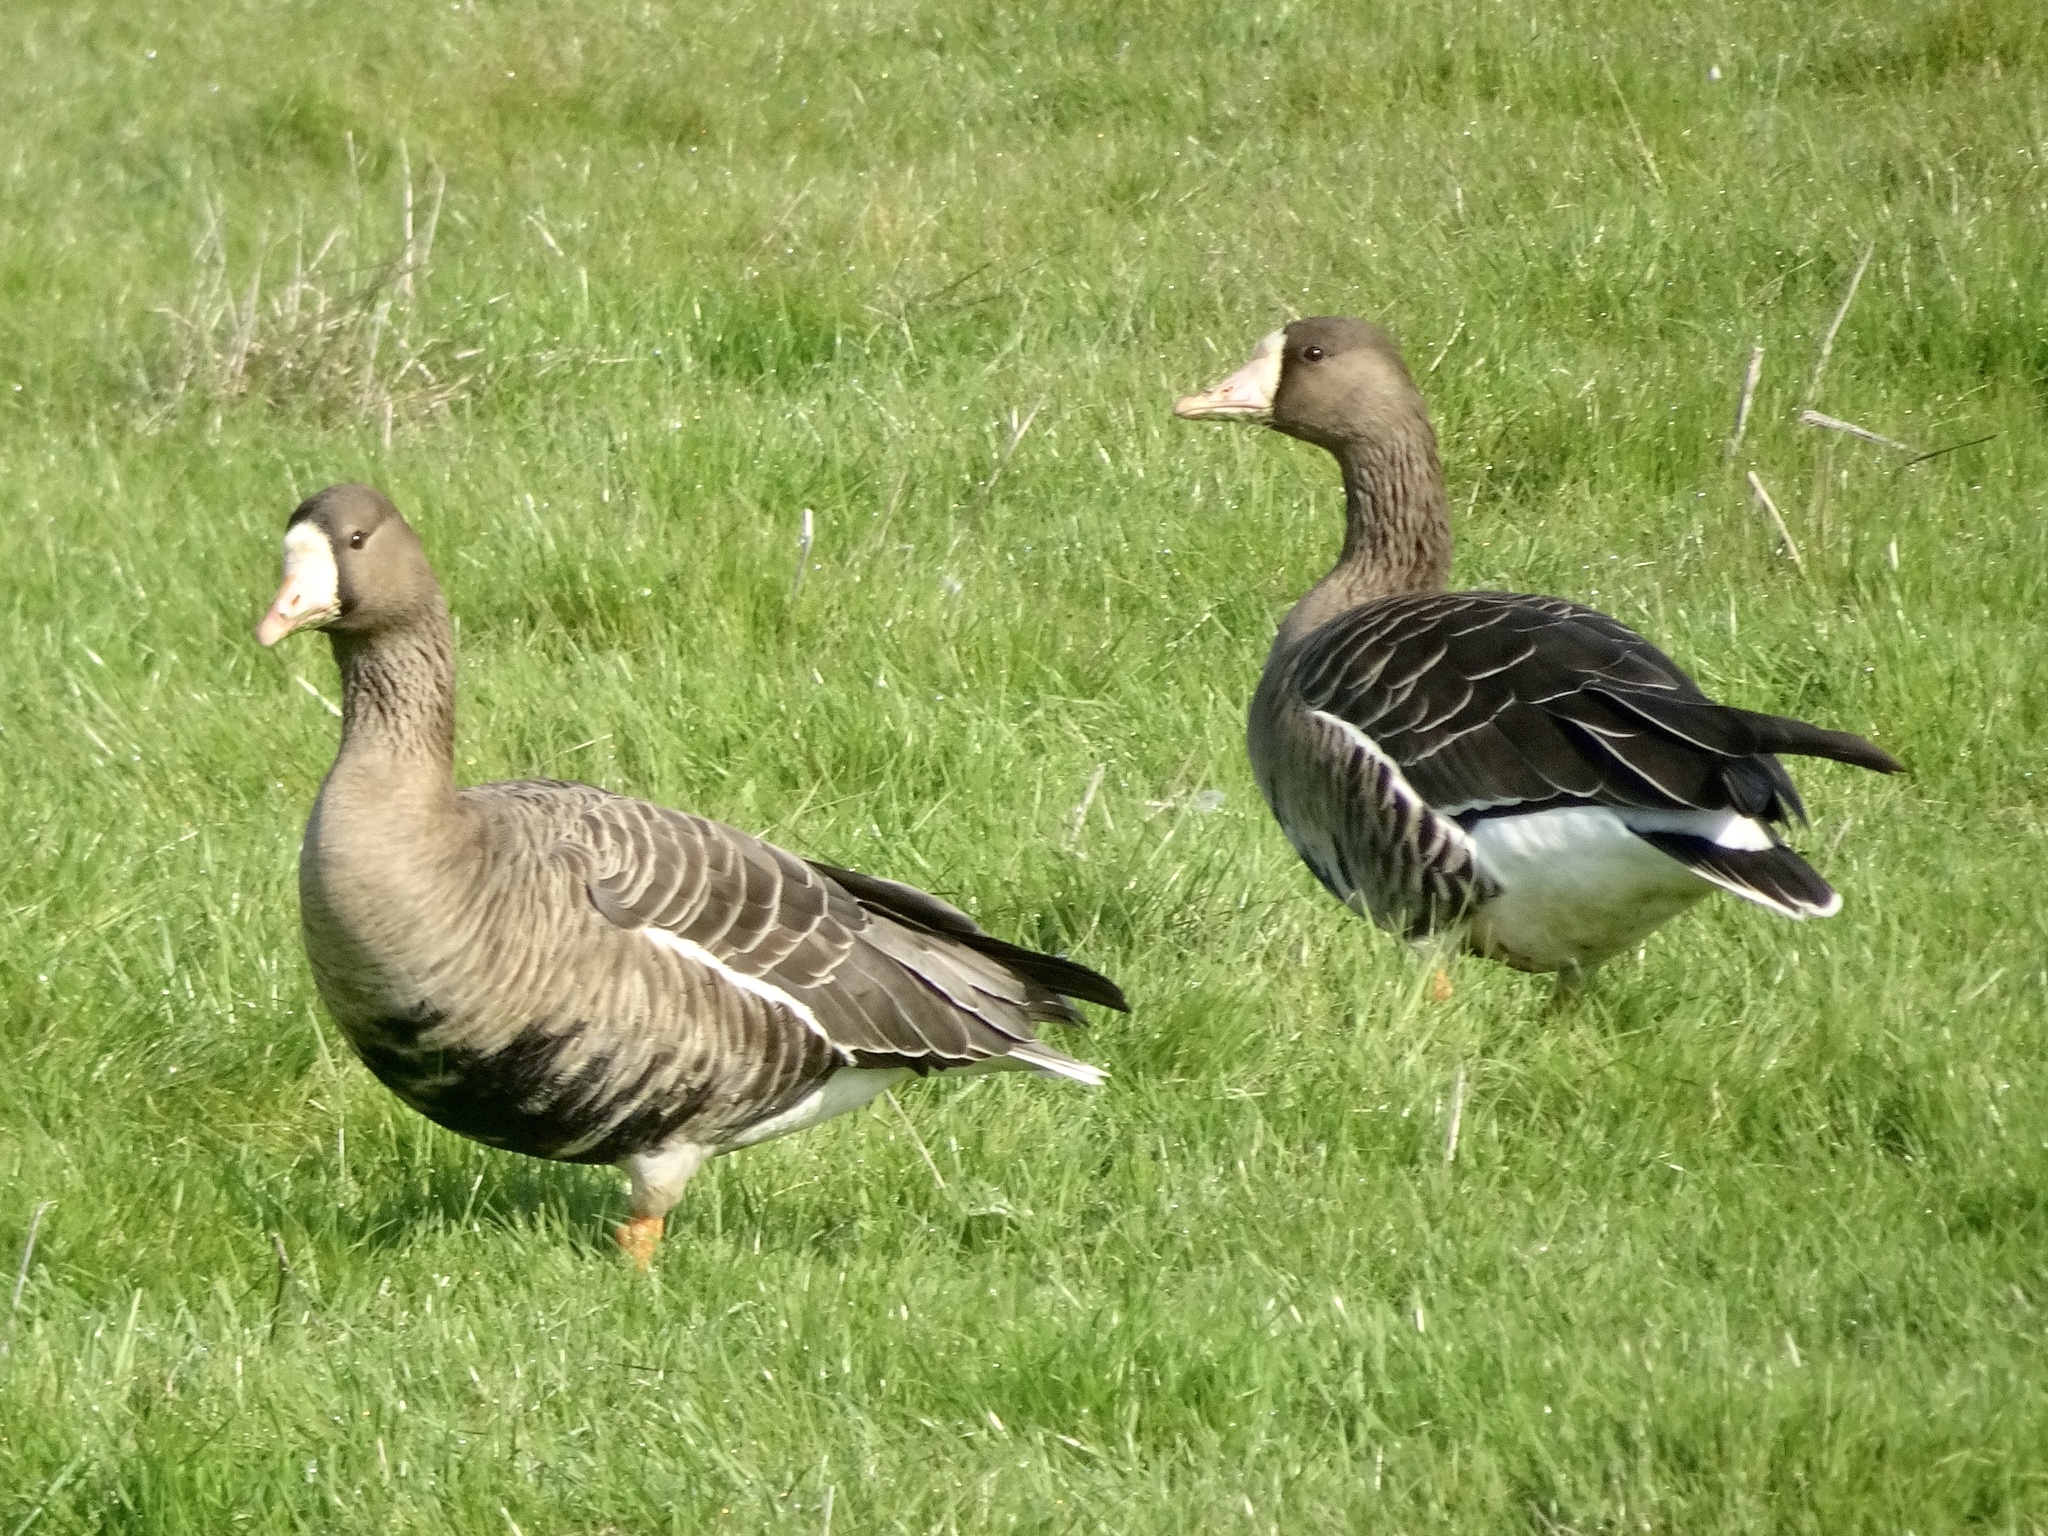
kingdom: Animalia
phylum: Chordata
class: Aves
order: Anseriformes
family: Anatidae
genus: Anser
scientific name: Anser albifrons
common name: Greater white-fronted goose
